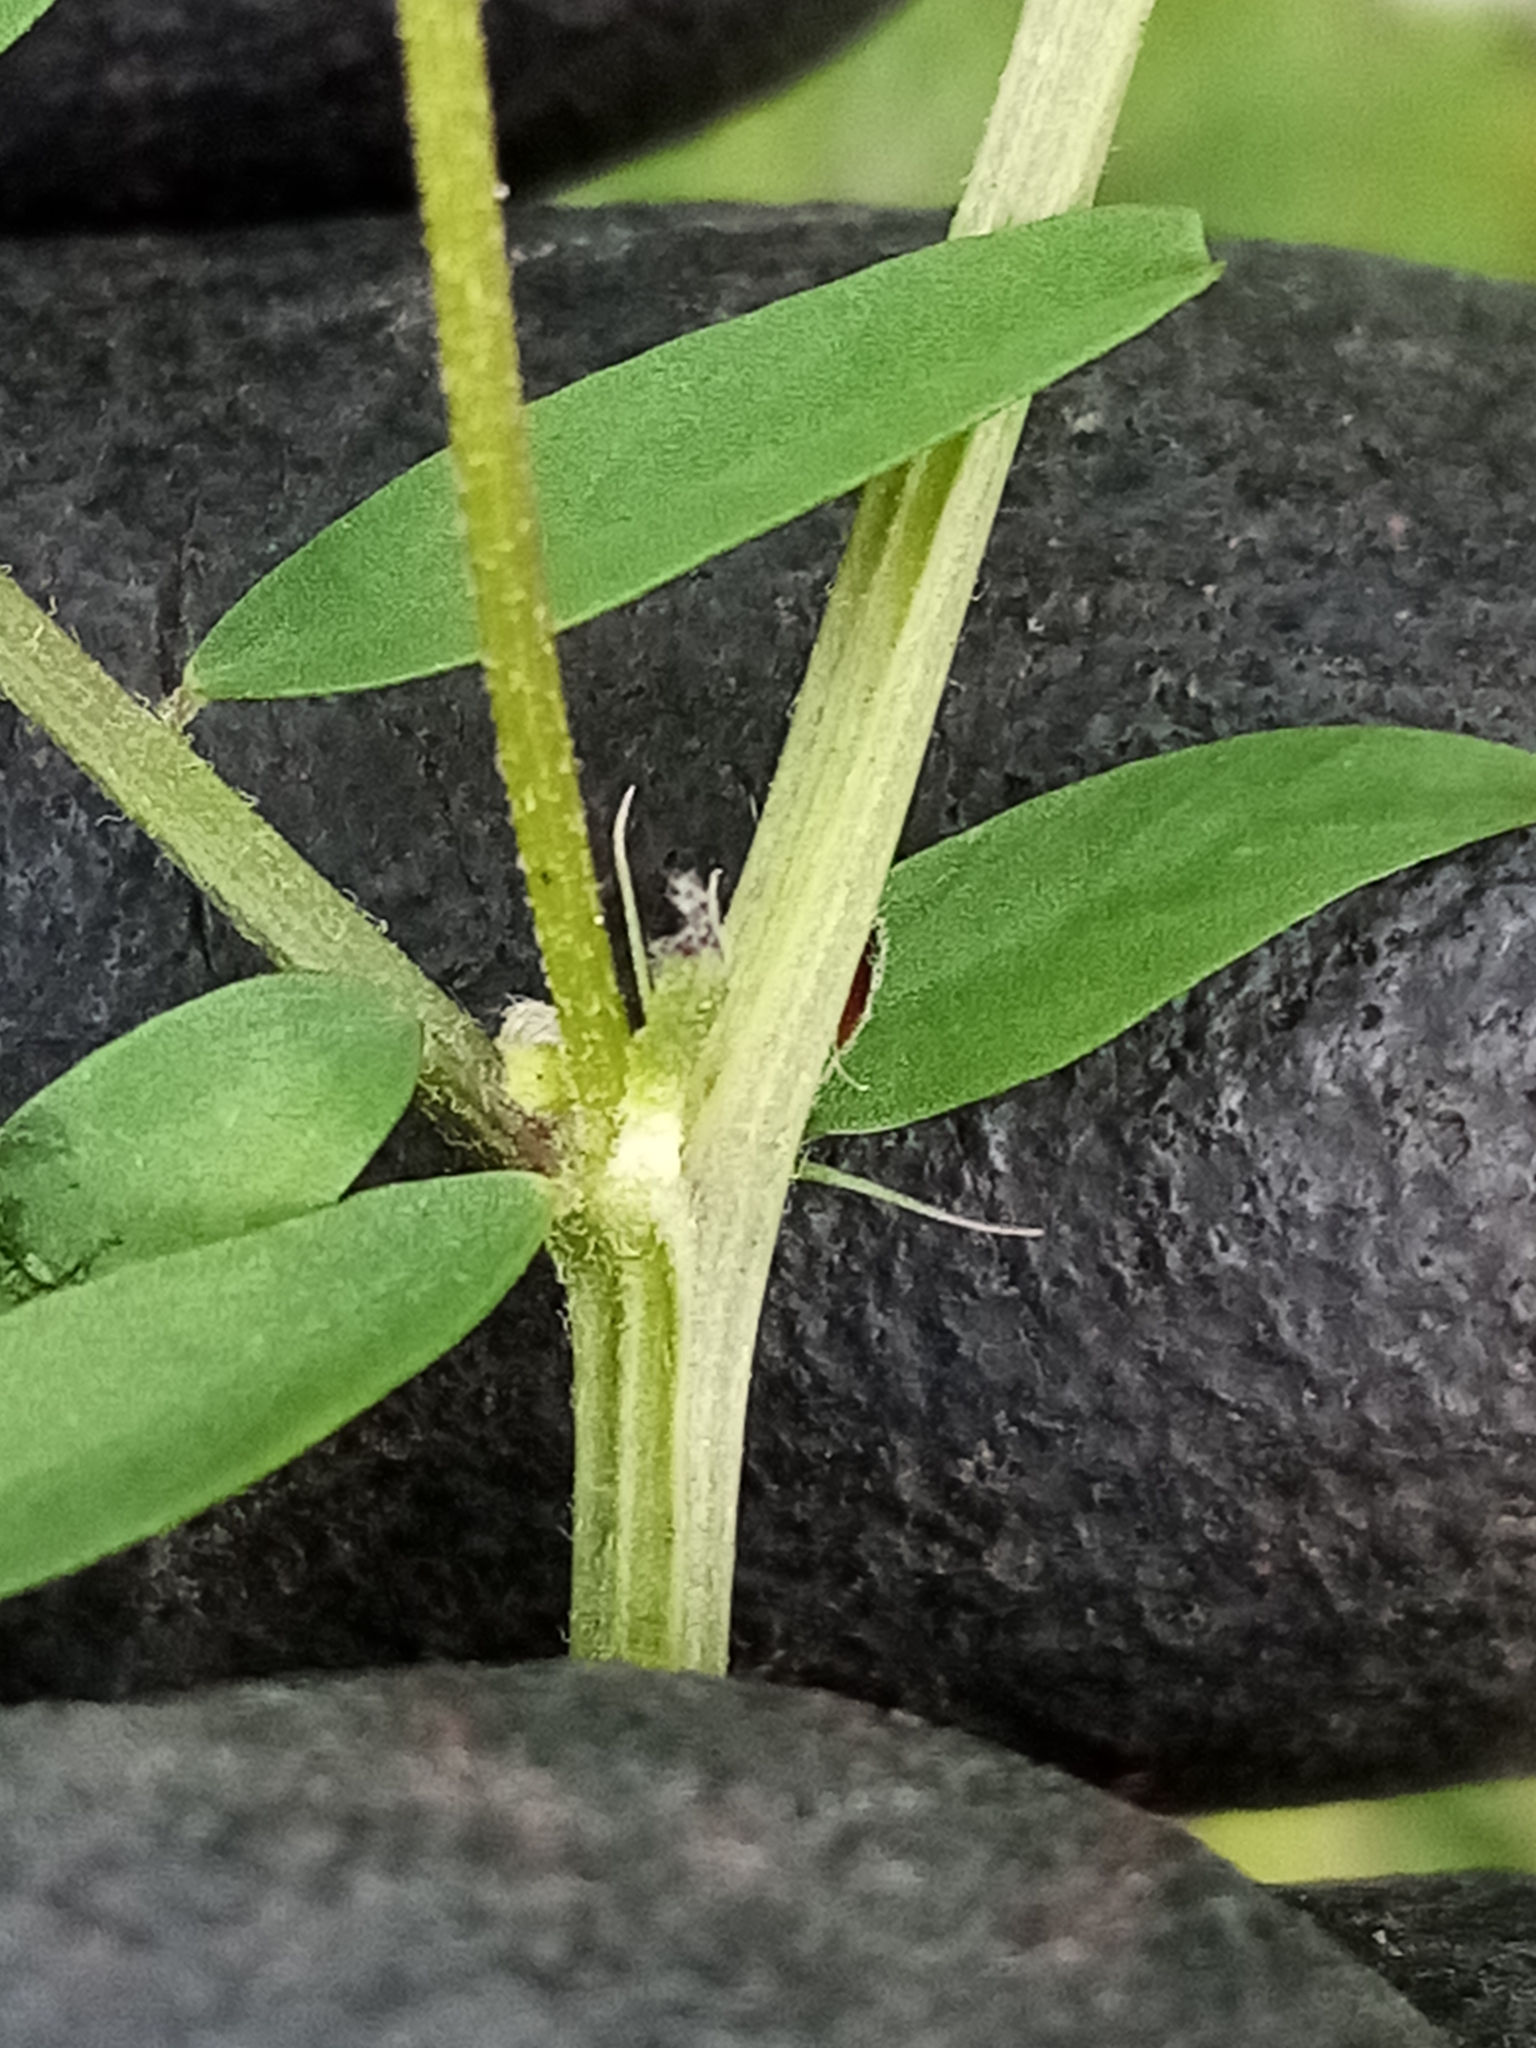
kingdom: Plantae
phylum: Tracheophyta
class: Magnoliopsida
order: Fabales
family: Fabaceae
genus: Vicia
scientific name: Vicia hirsuta
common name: Tiny vetch
